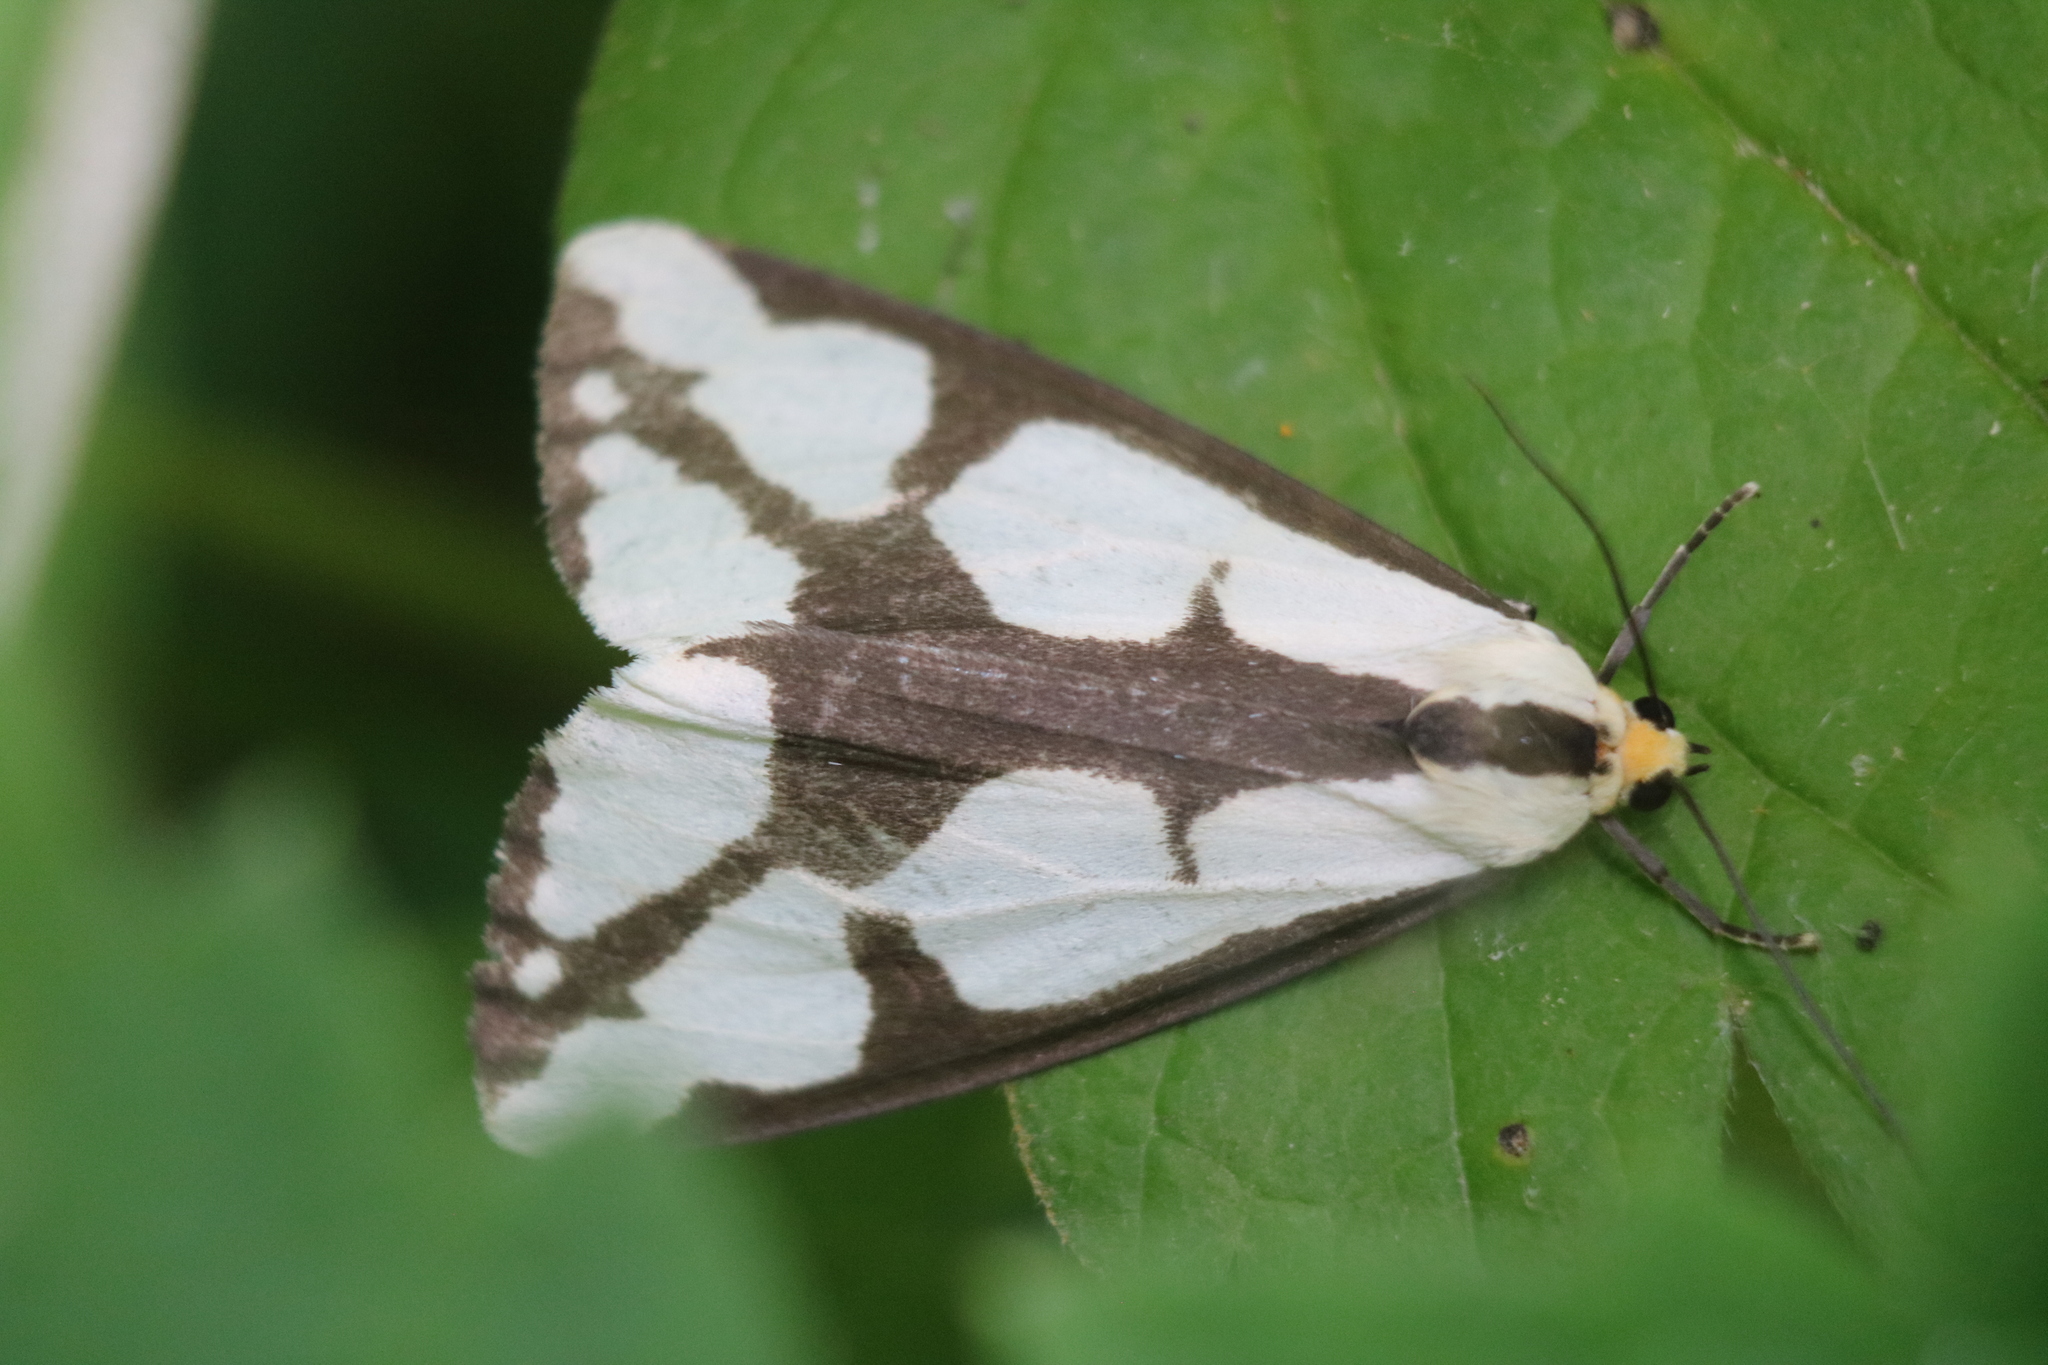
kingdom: Animalia
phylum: Arthropoda
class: Insecta
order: Lepidoptera
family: Erebidae
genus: Haploa
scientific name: Haploa lecontei
